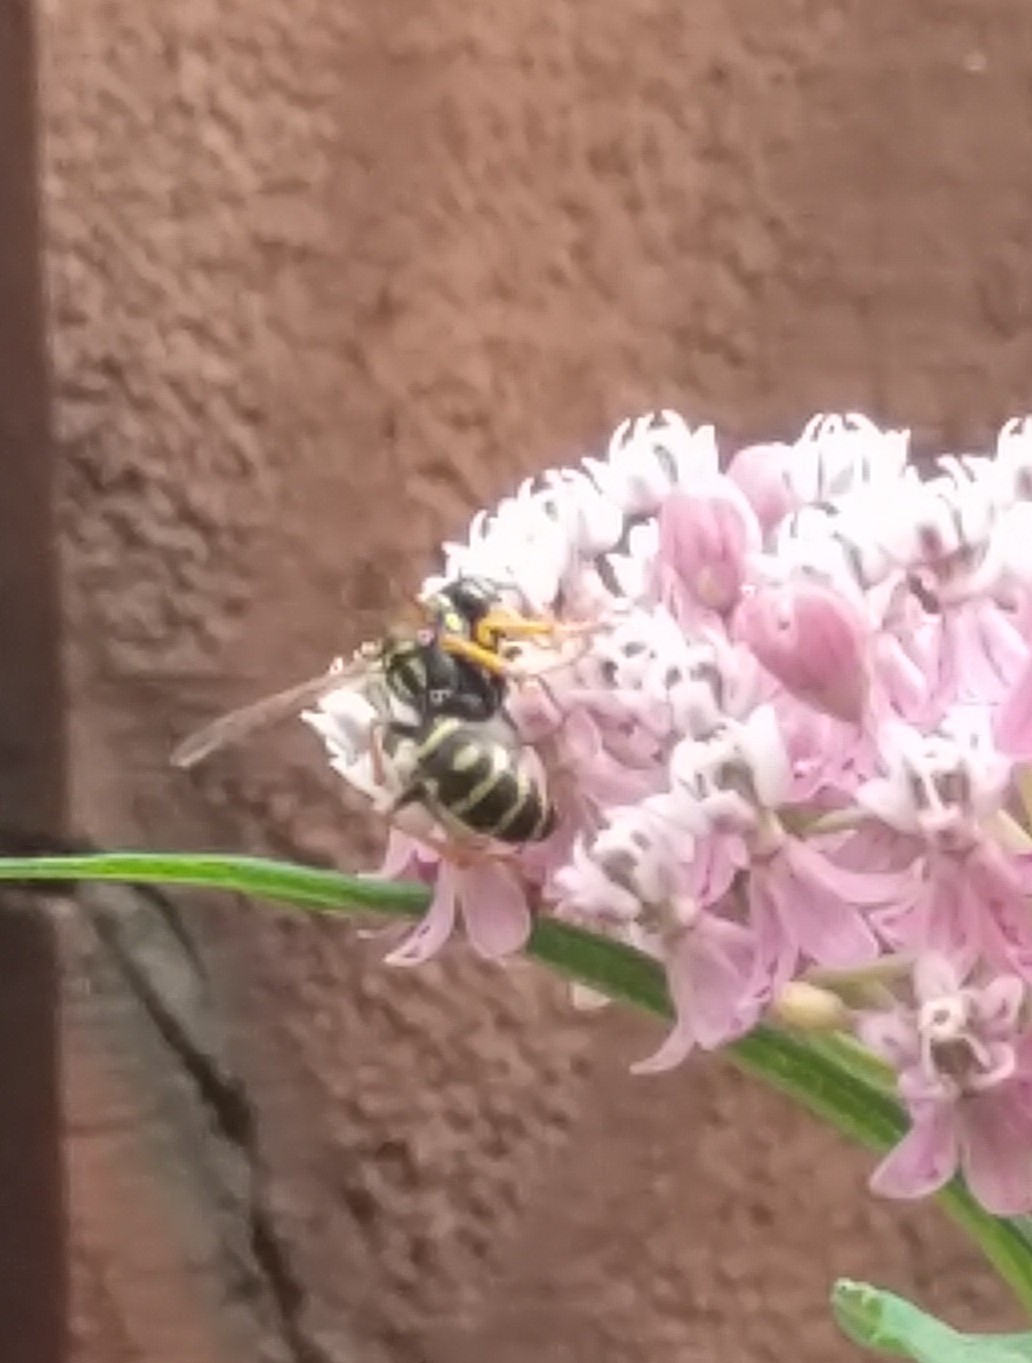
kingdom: Animalia
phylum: Arthropoda
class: Insecta
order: Hymenoptera
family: Eumenidae
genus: Polistes
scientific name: Polistes dominula
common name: Paper wasp
